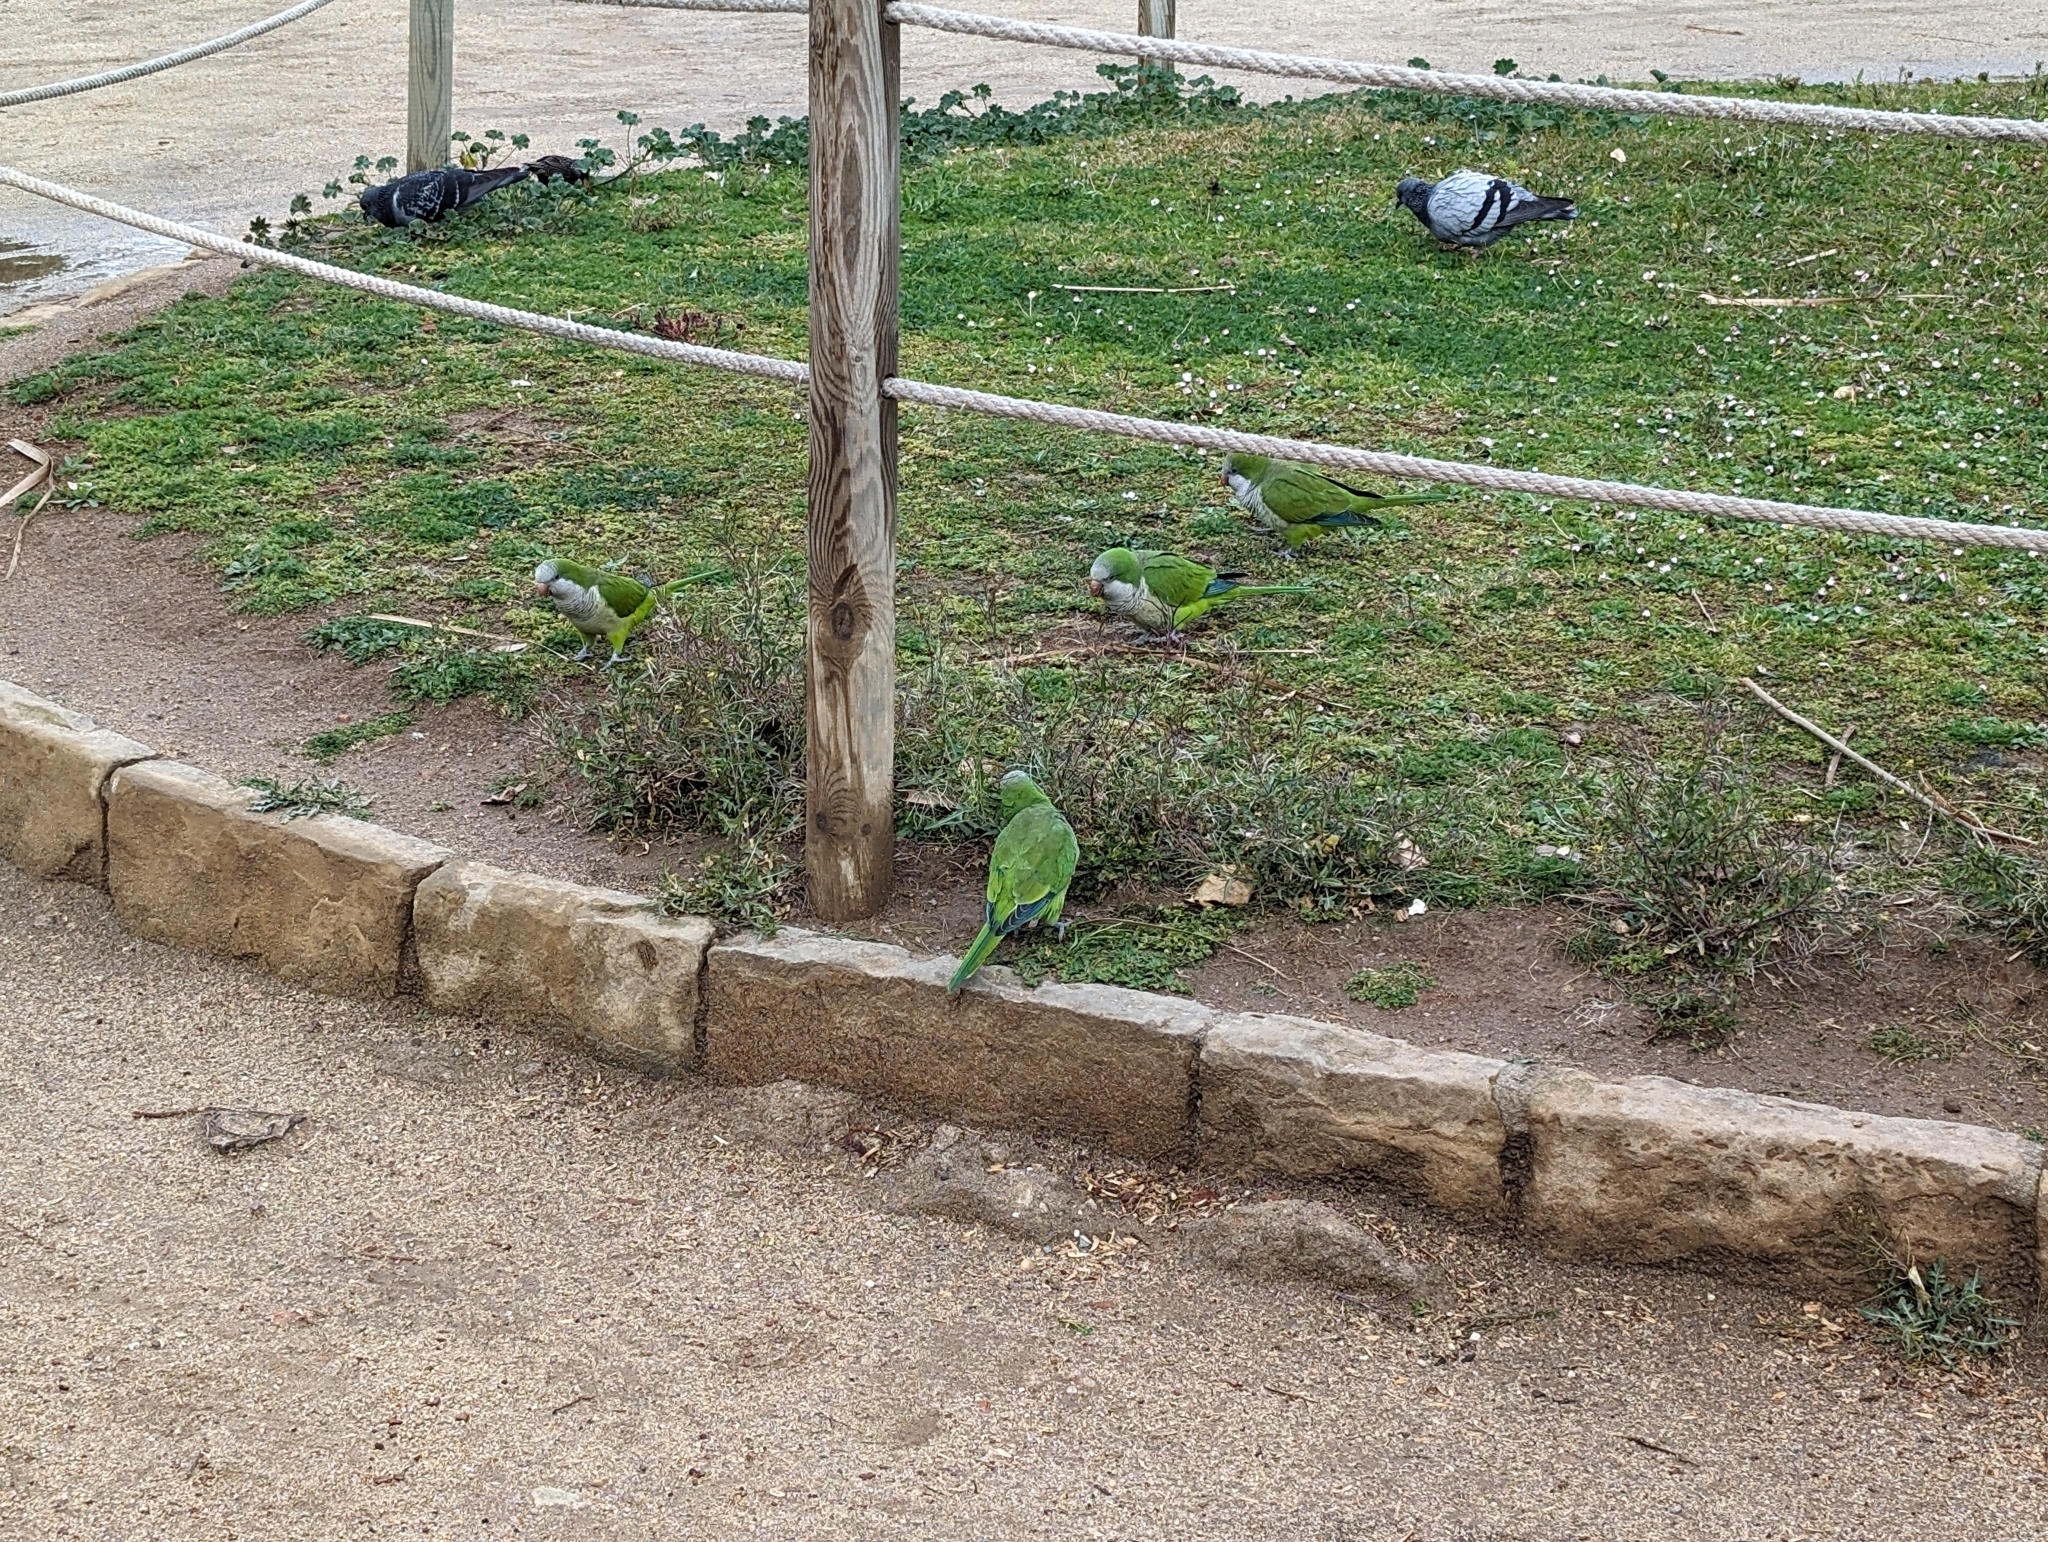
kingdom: Animalia
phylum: Chordata
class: Aves
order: Psittaciformes
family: Psittacidae
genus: Myiopsitta
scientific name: Myiopsitta monachus
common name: Monk parakeet
